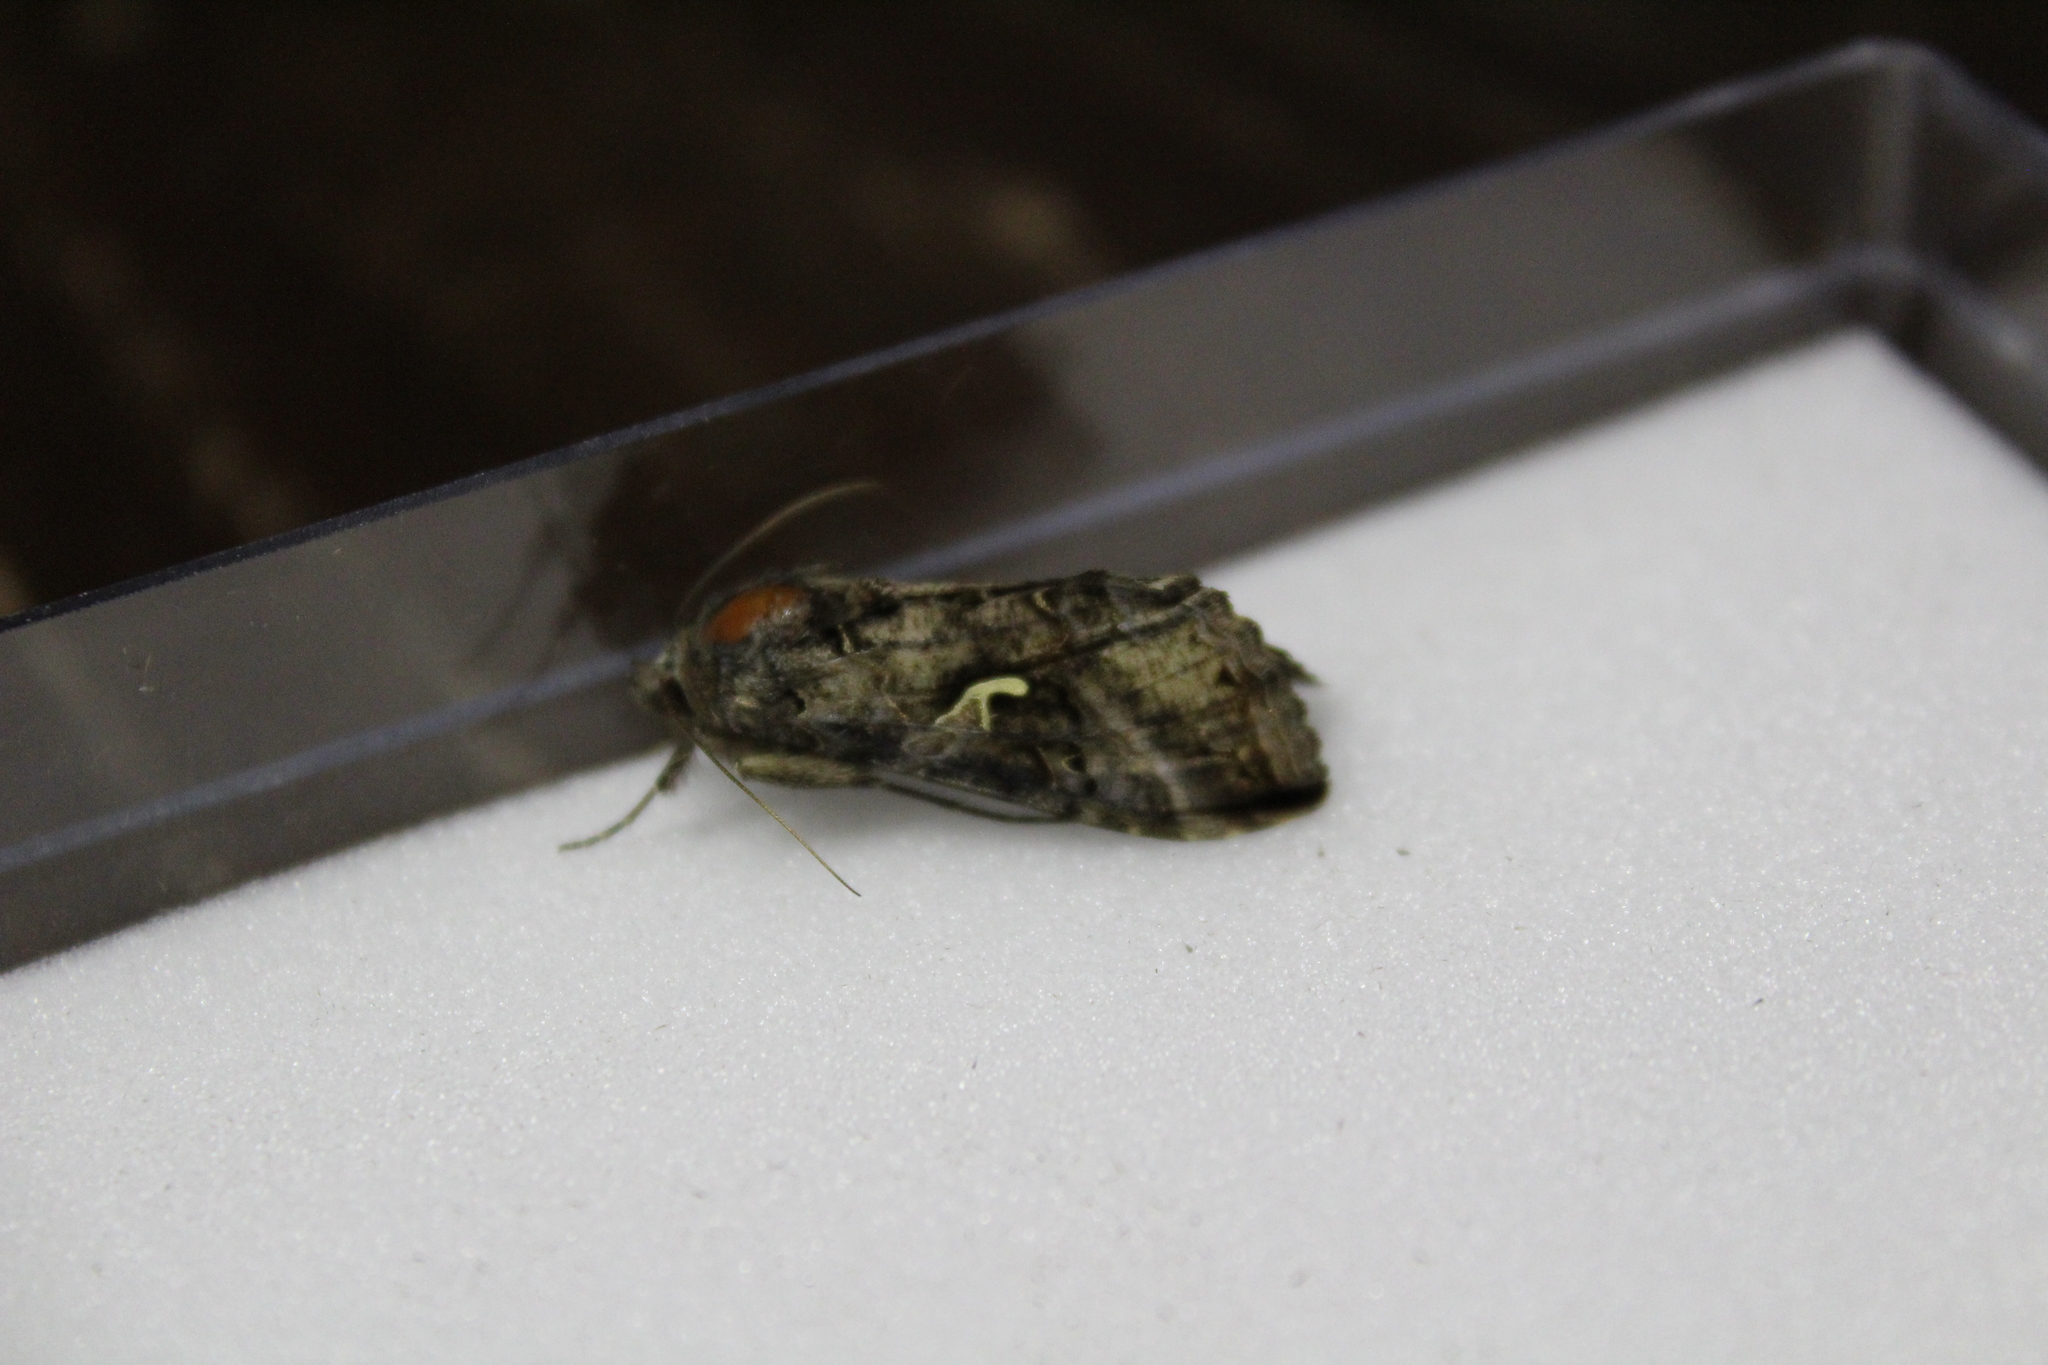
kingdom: Animalia
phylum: Arthropoda
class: Insecta
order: Lepidoptera
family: Noctuidae
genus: Autographa
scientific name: Autographa gamma
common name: Silver y
